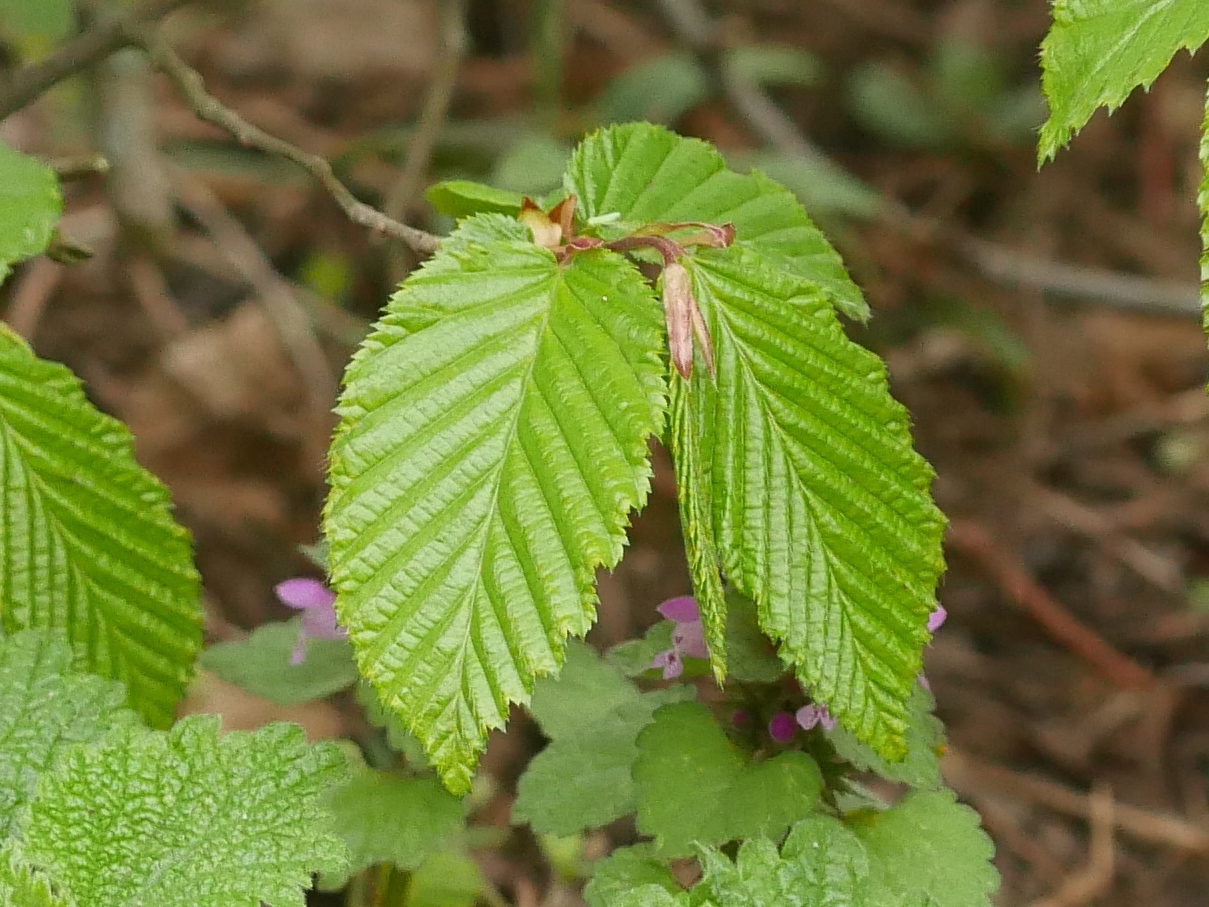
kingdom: Plantae
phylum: Tracheophyta
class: Magnoliopsida
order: Fagales
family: Betulaceae
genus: Carpinus
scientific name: Carpinus betulus
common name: Hornbeam
